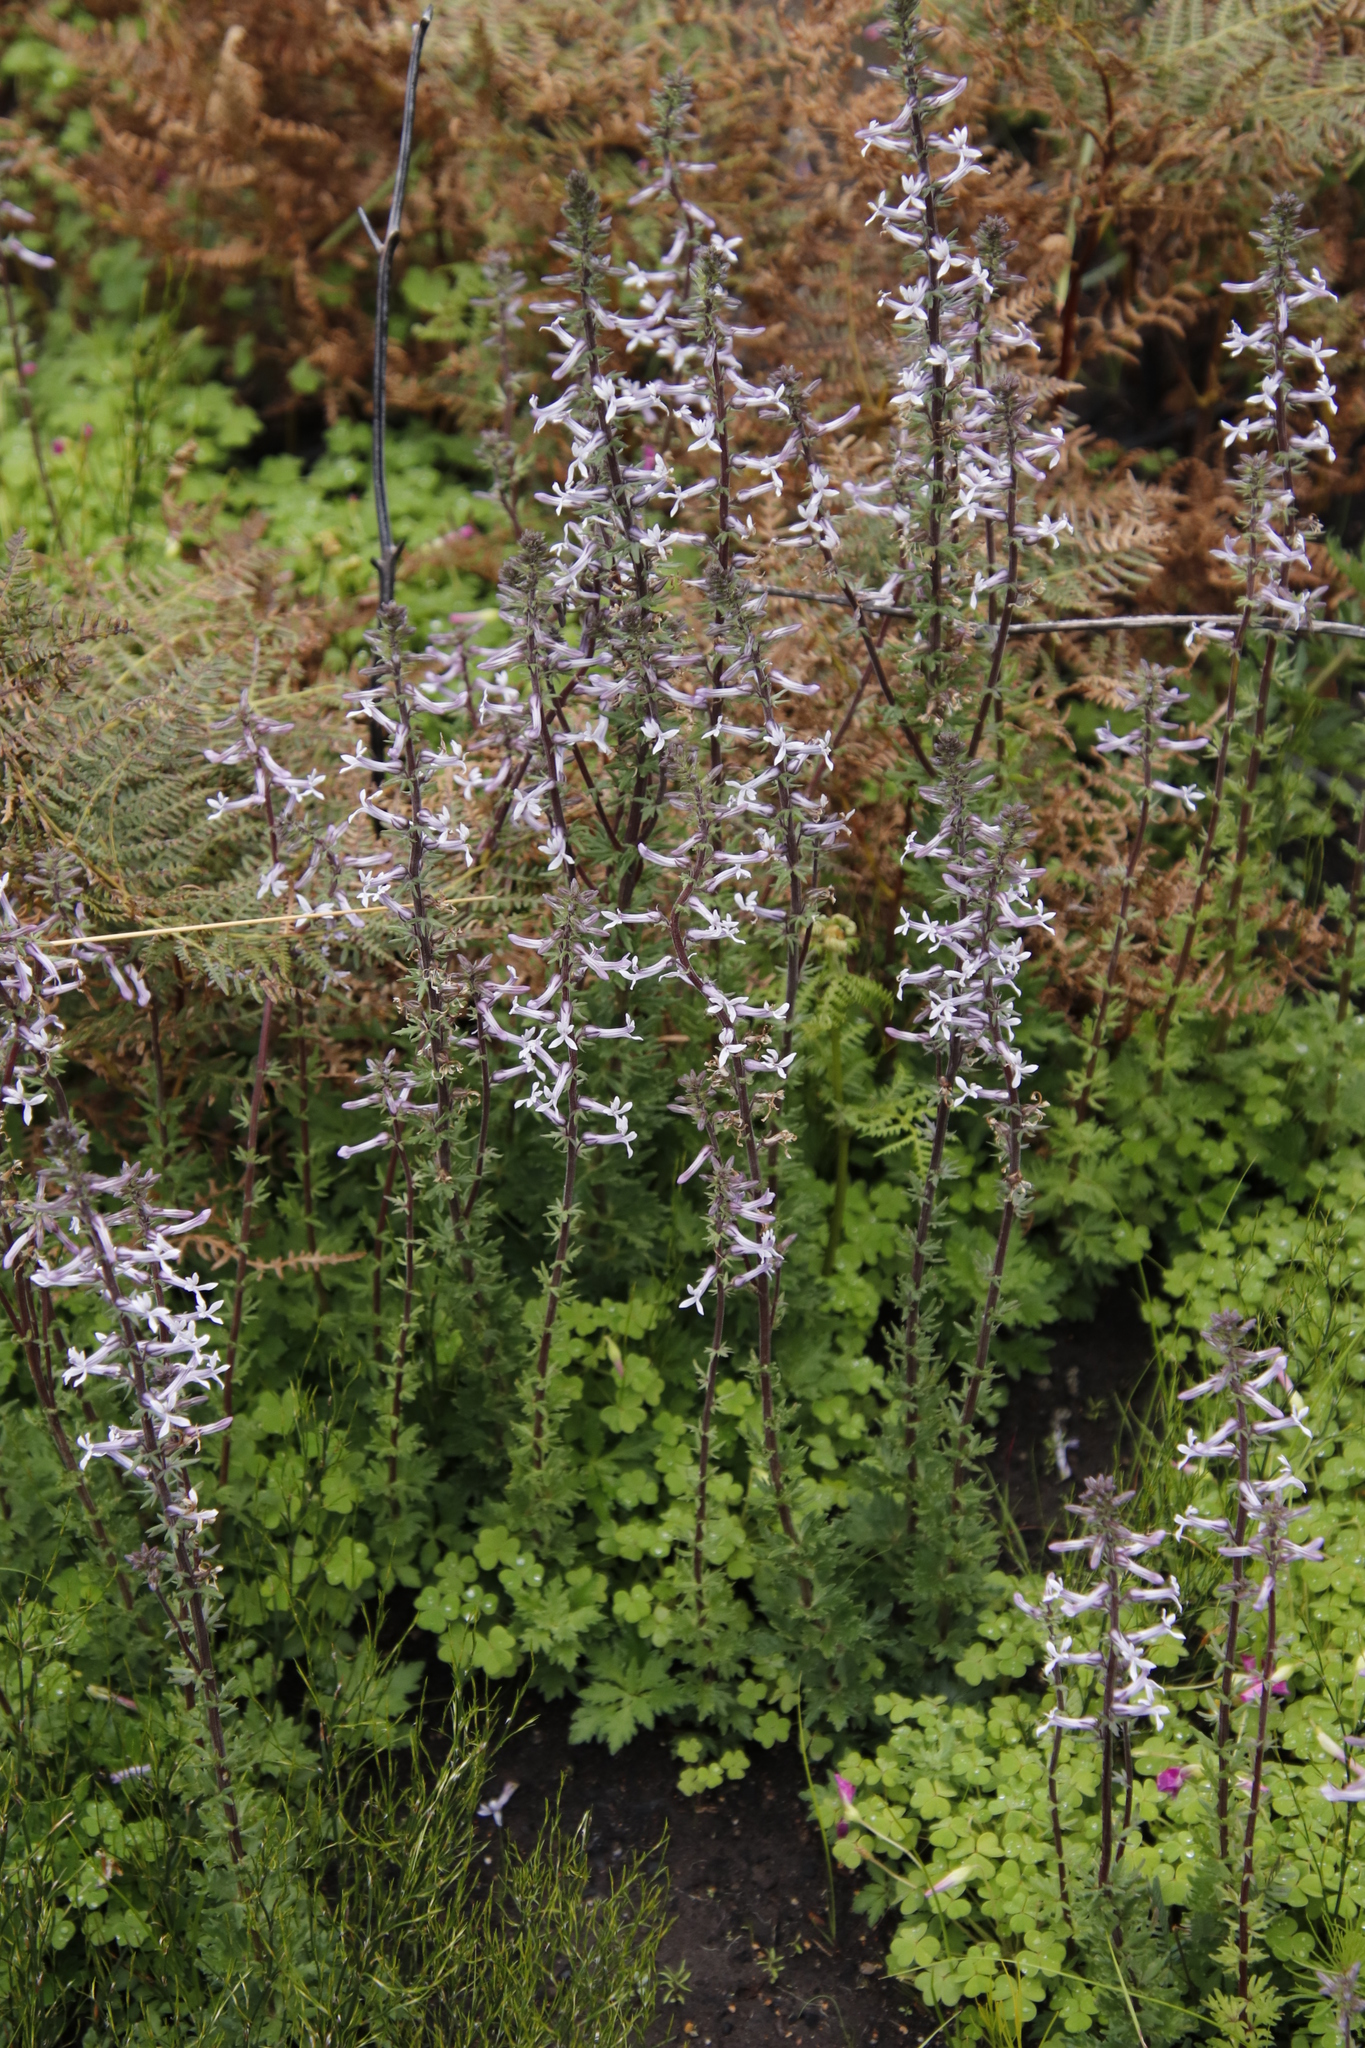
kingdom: Plantae
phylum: Tracheophyta
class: Magnoliopsida
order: Asterales
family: Campanulaceae
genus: Cyphia
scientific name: Cyphia bulbosa
